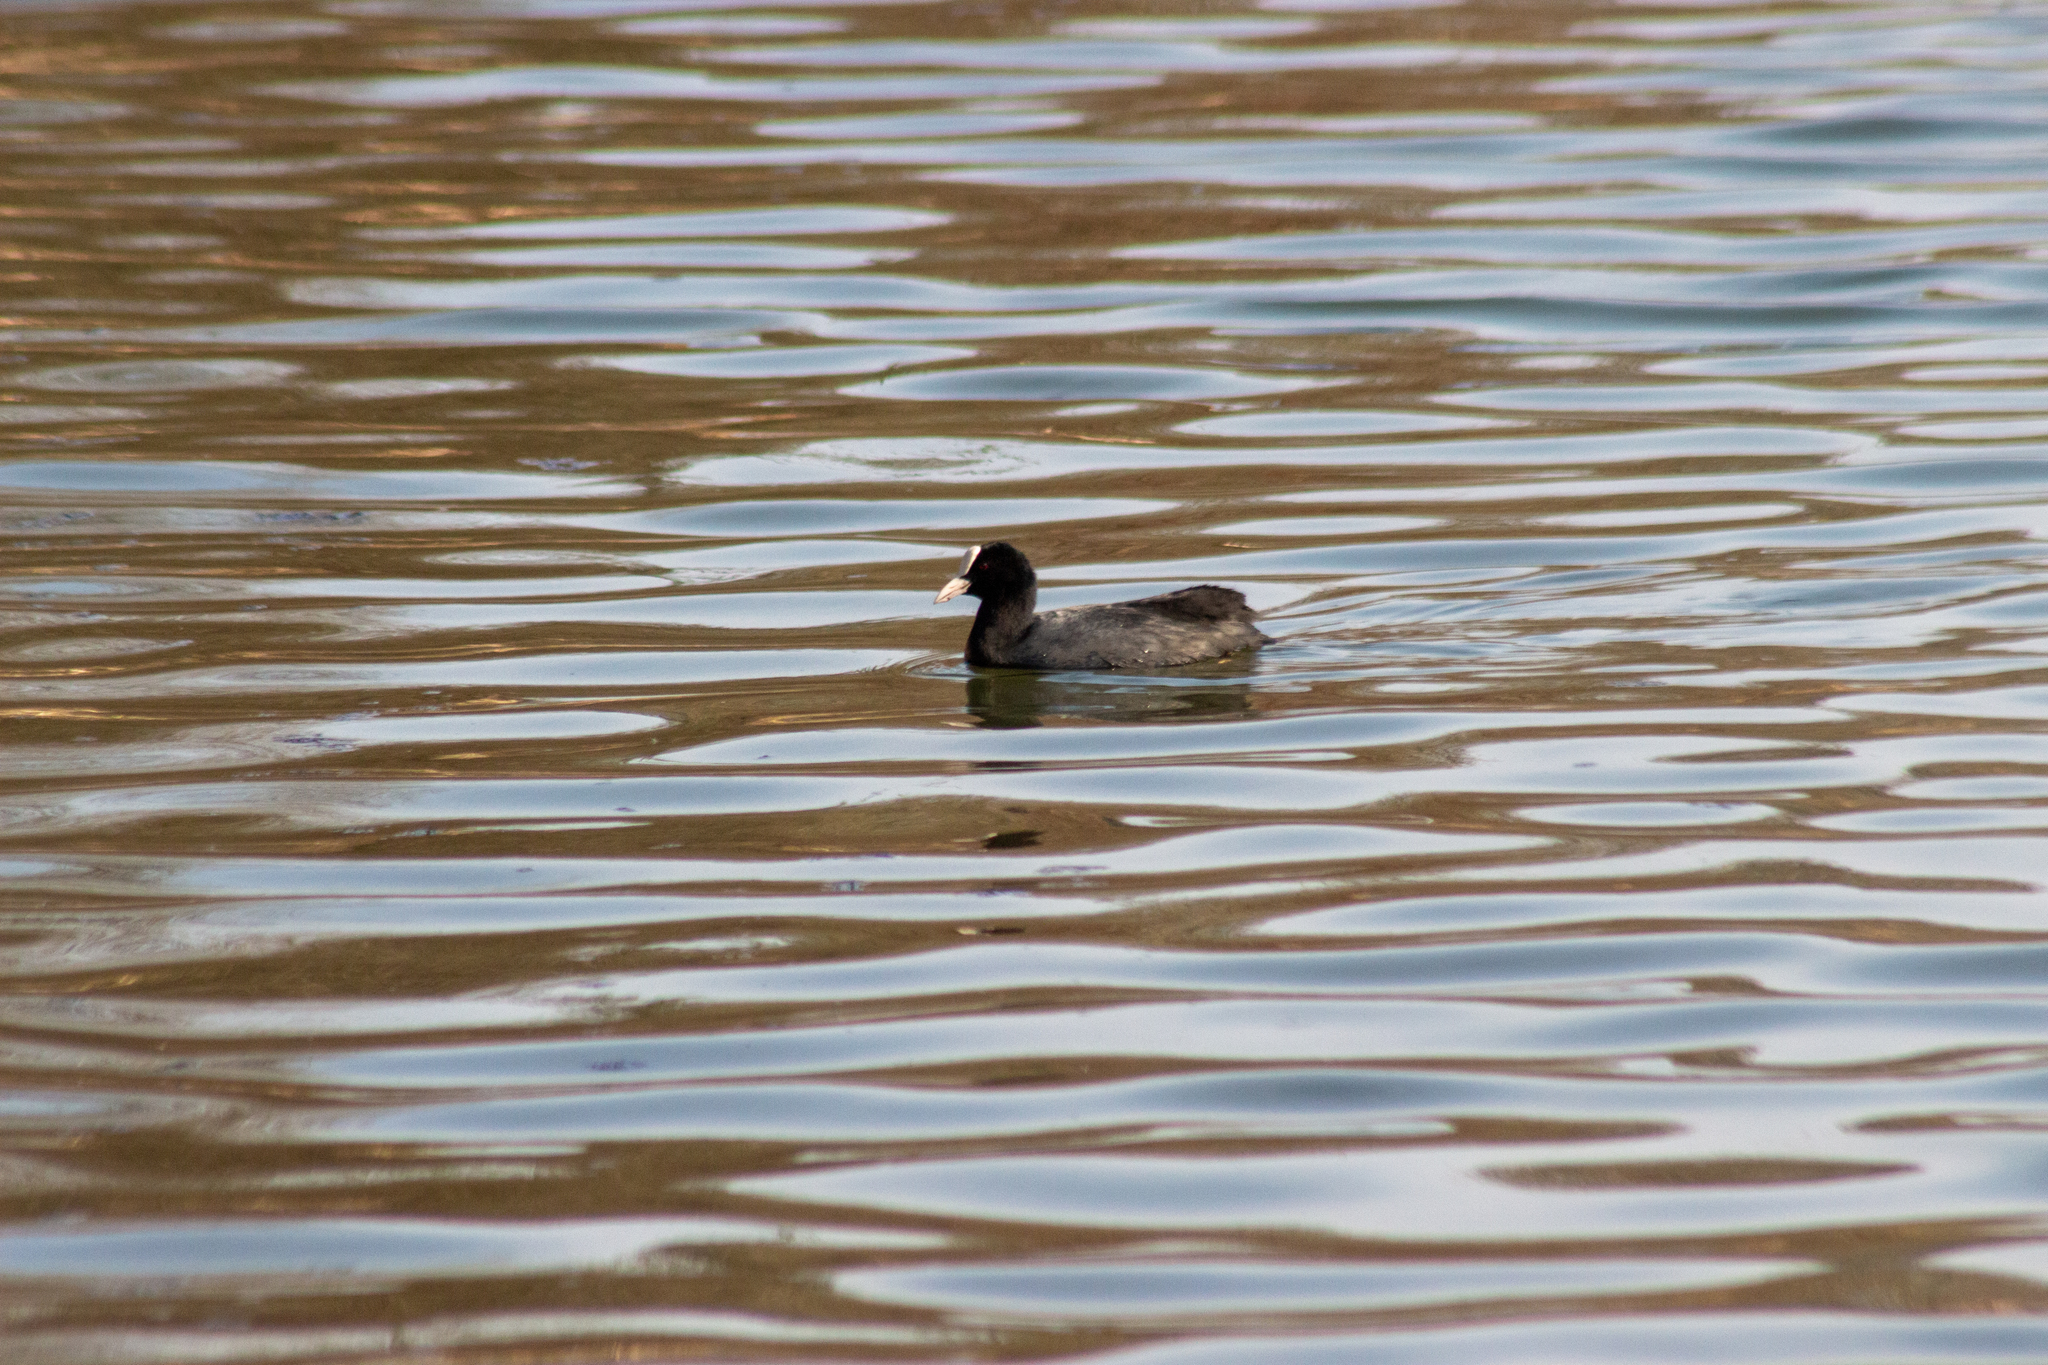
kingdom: Animalia
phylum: Chordata
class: Aves
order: Gruiformes
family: Rallidae
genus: Fulica
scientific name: Fulica atra
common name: Eurasian coot
